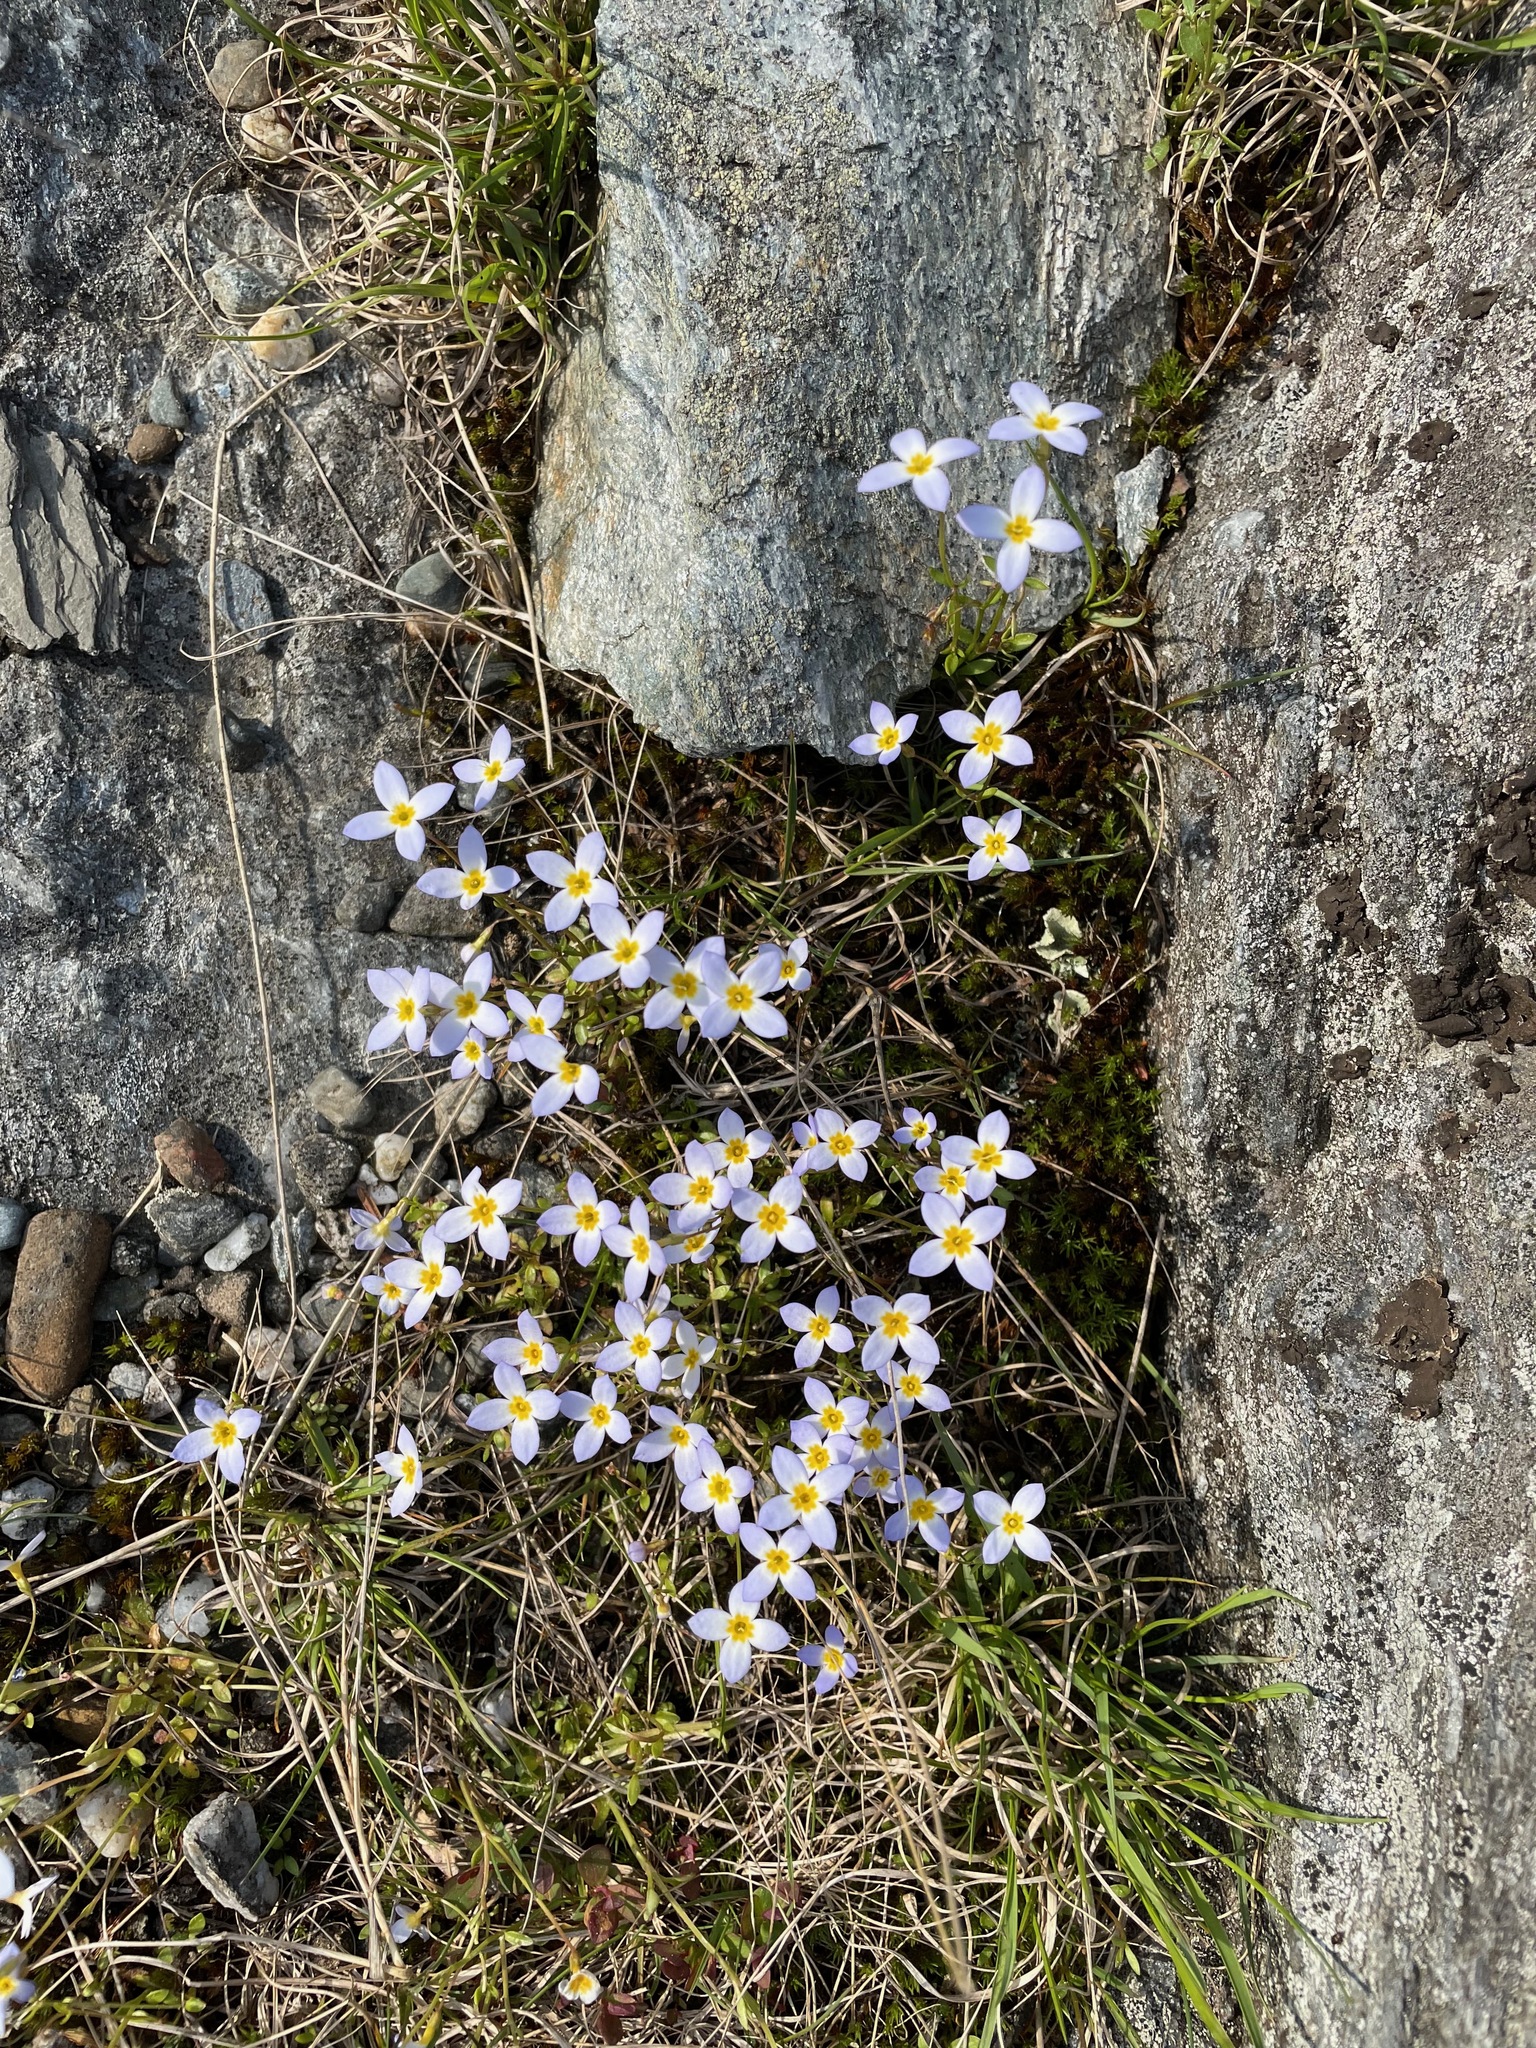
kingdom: Plantae
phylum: Tracheophyta
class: Magnoliopsida
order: Gentianales
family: Rubiaceae
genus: Houstonia
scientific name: Houstonia caerulea
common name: Bluets
